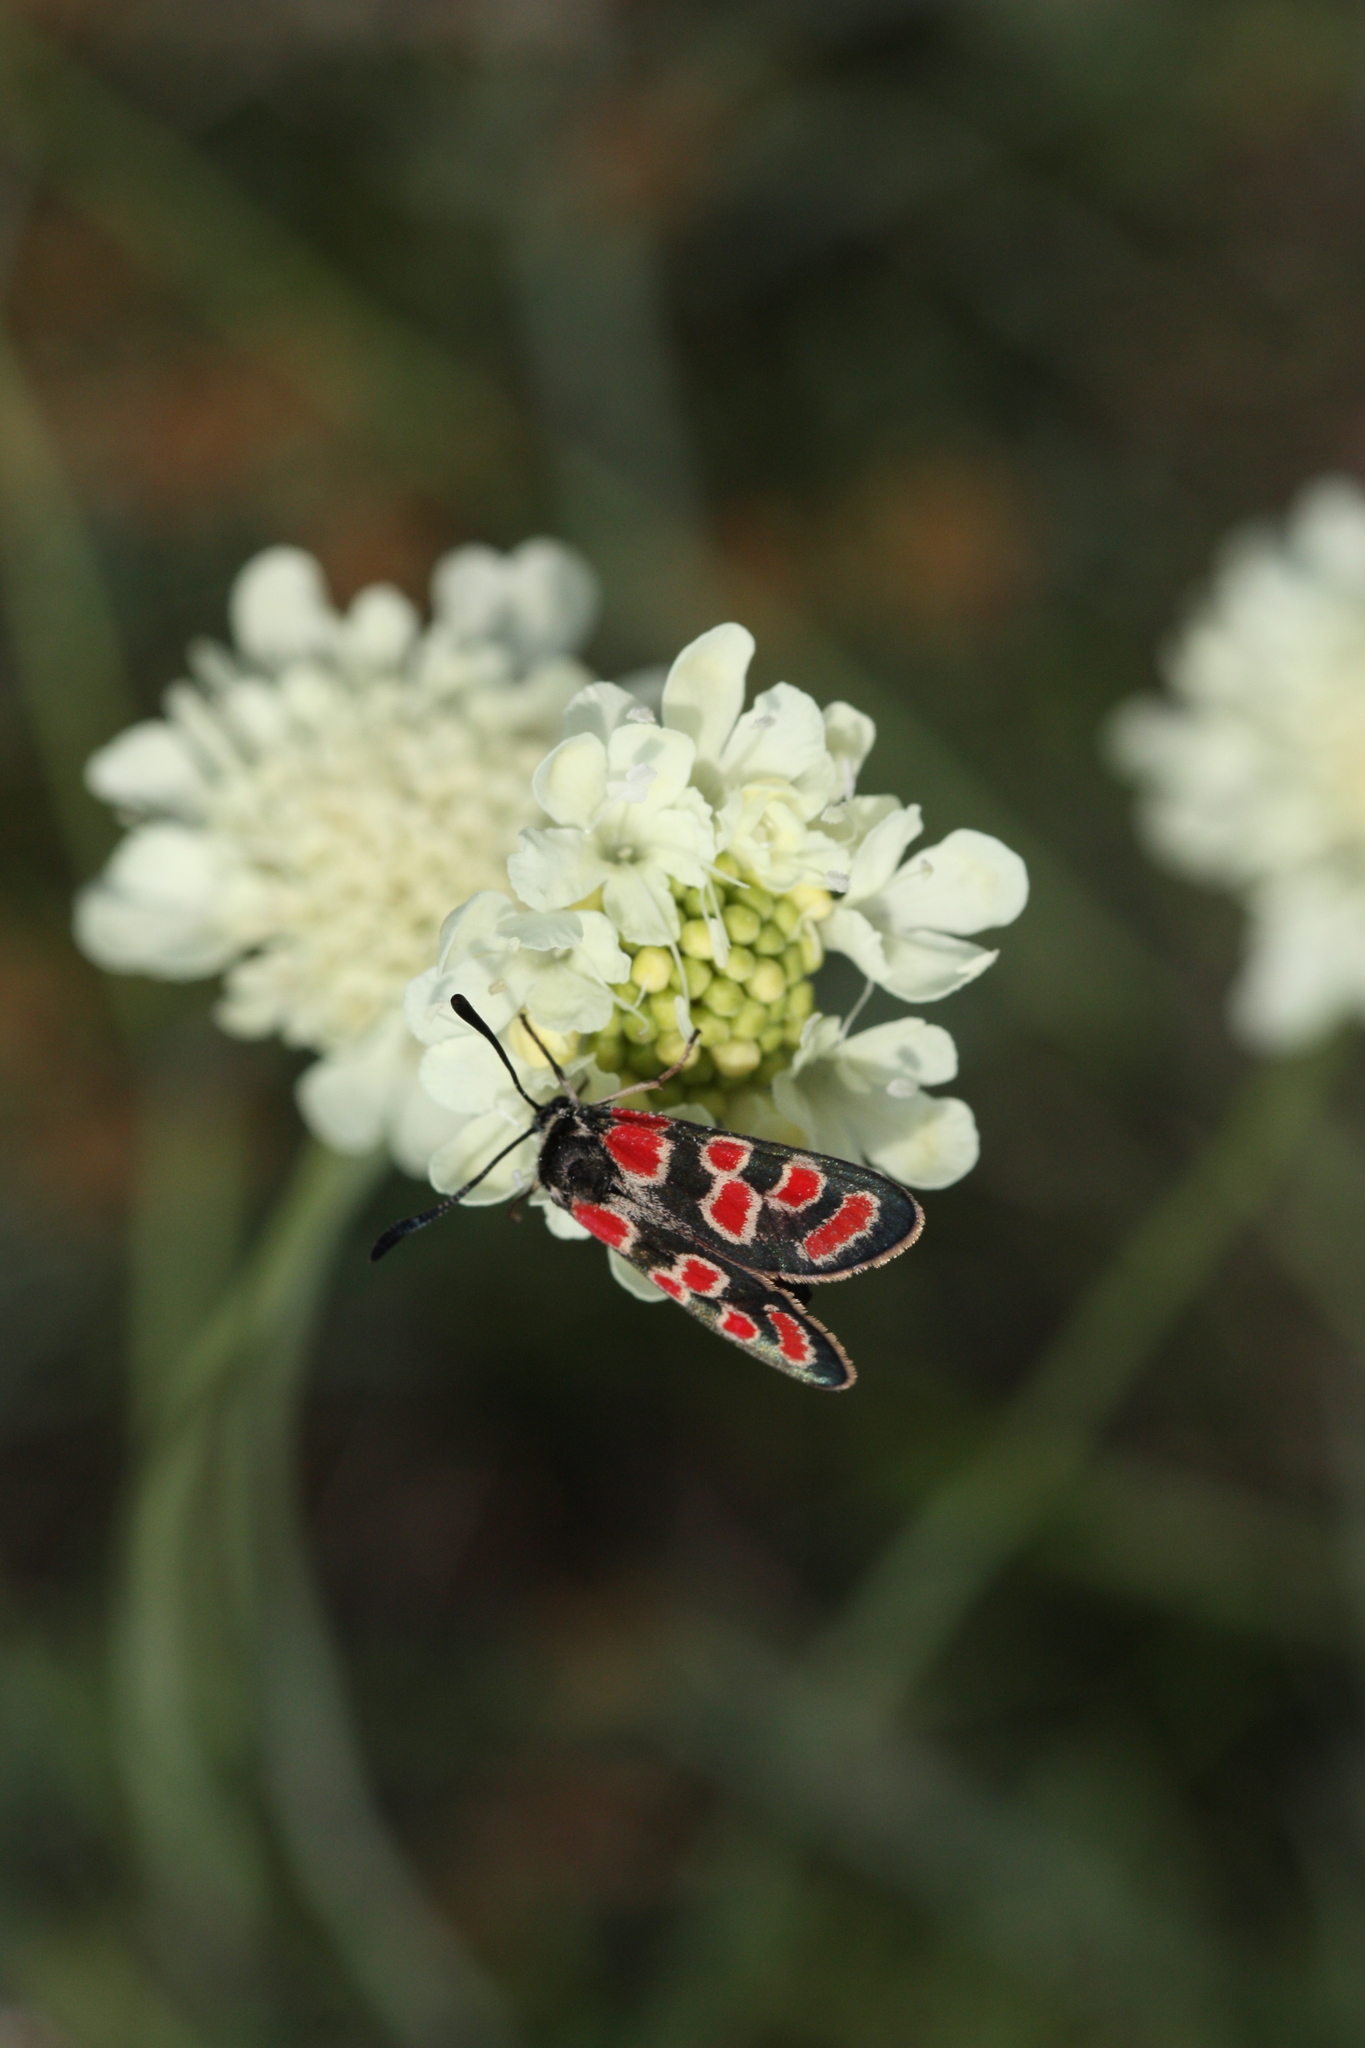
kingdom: Animalia
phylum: Arthropoda
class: Insecta
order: Lepidoptera
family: Zygaenidae
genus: Zygaena
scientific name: Zygaena carniolica
